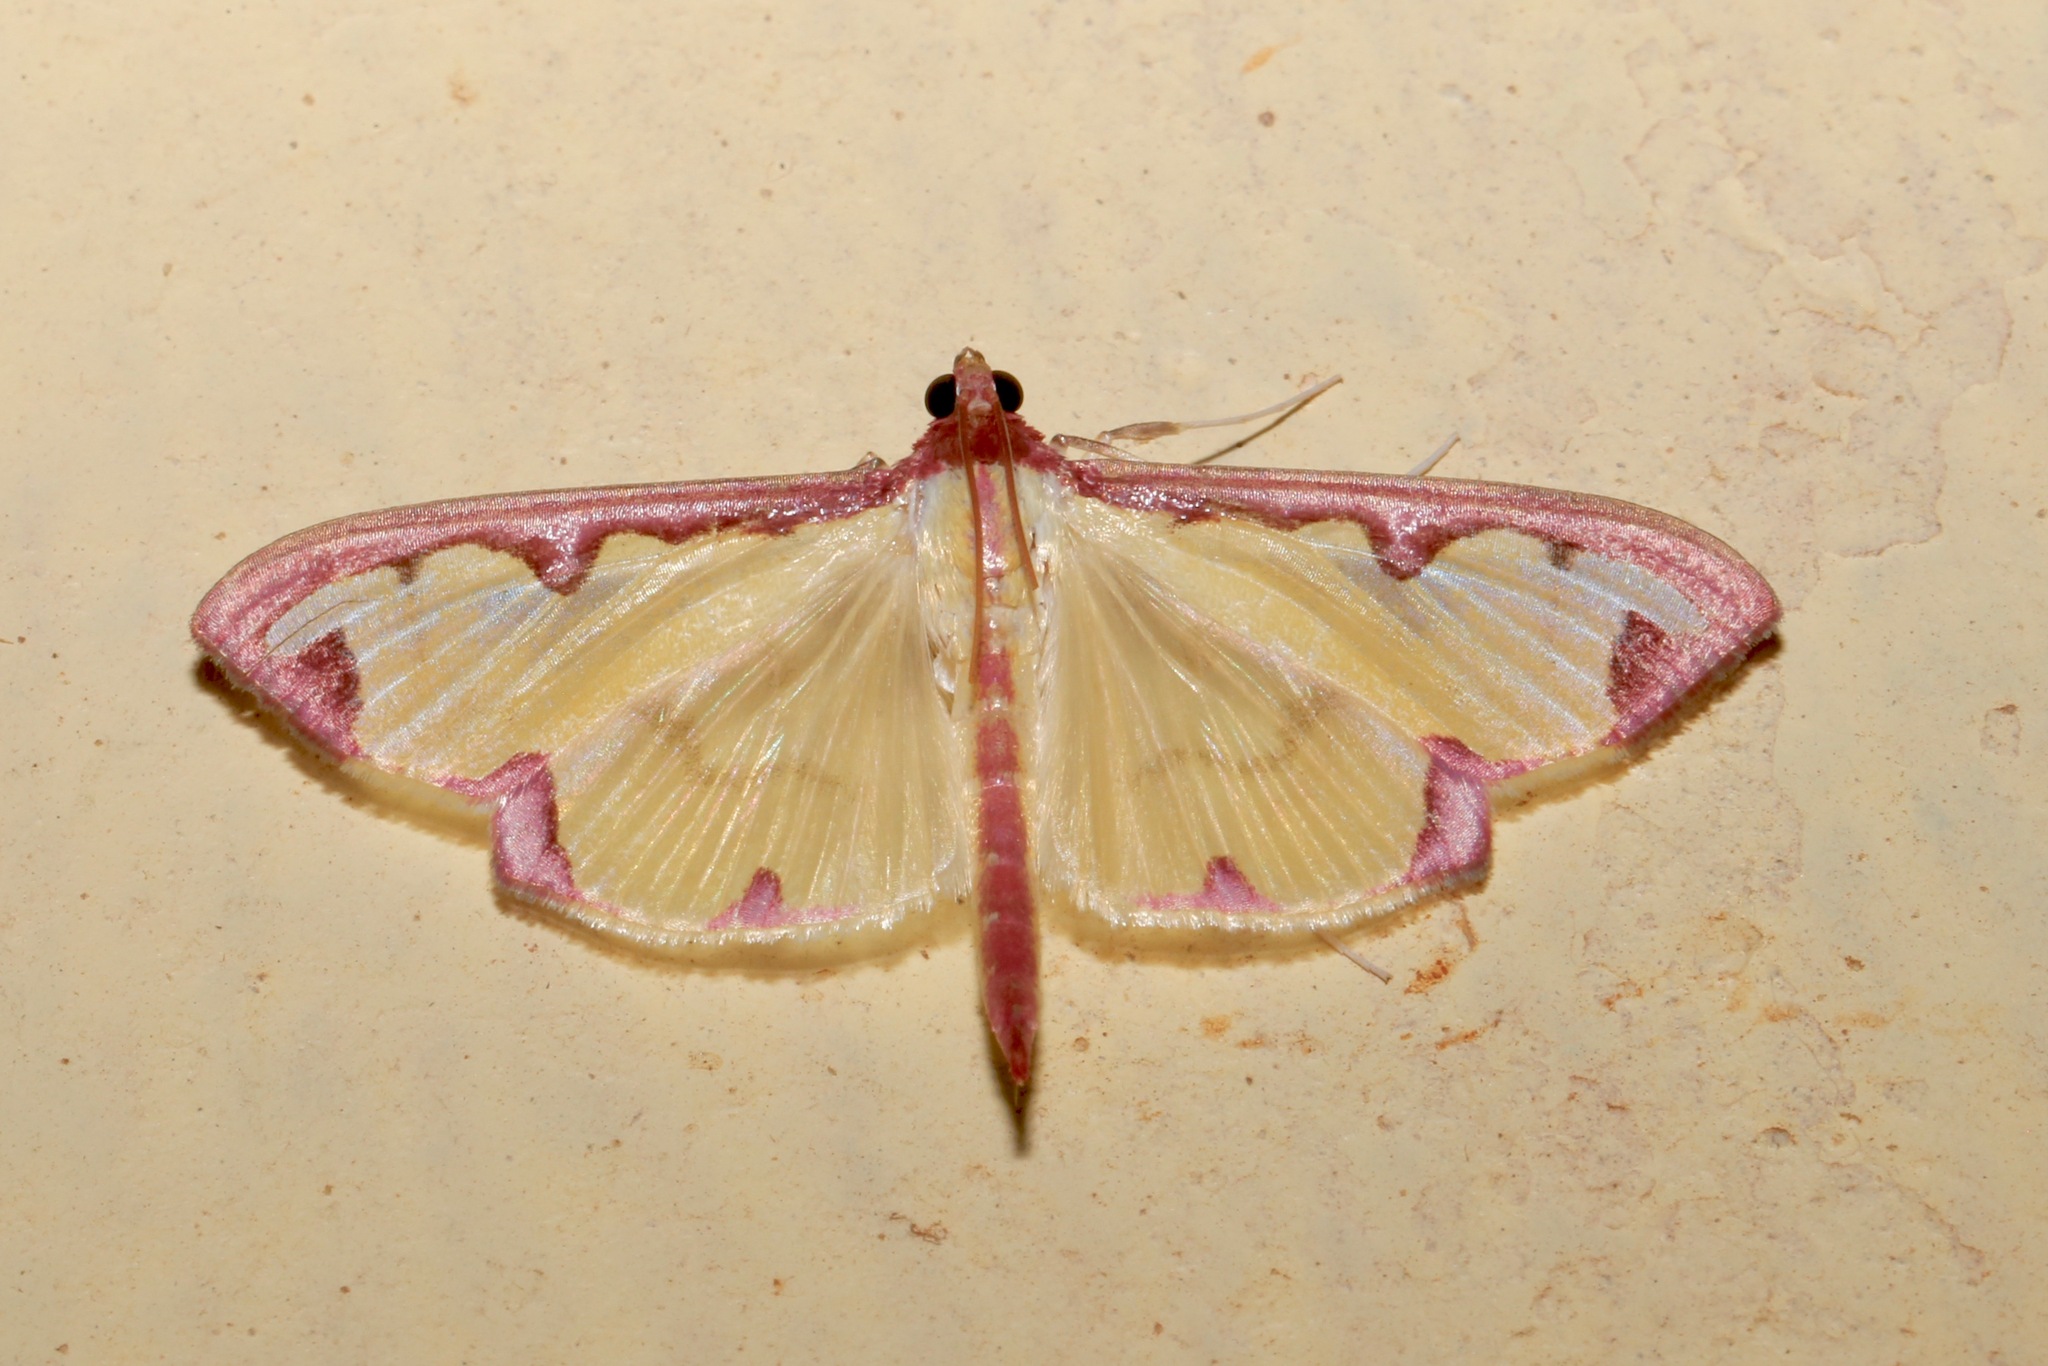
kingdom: Animalia
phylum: Arthropoda
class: Insecta
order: Lepidoptera
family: Crambidae
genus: Cadarena
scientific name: Cadarena pudoraria
